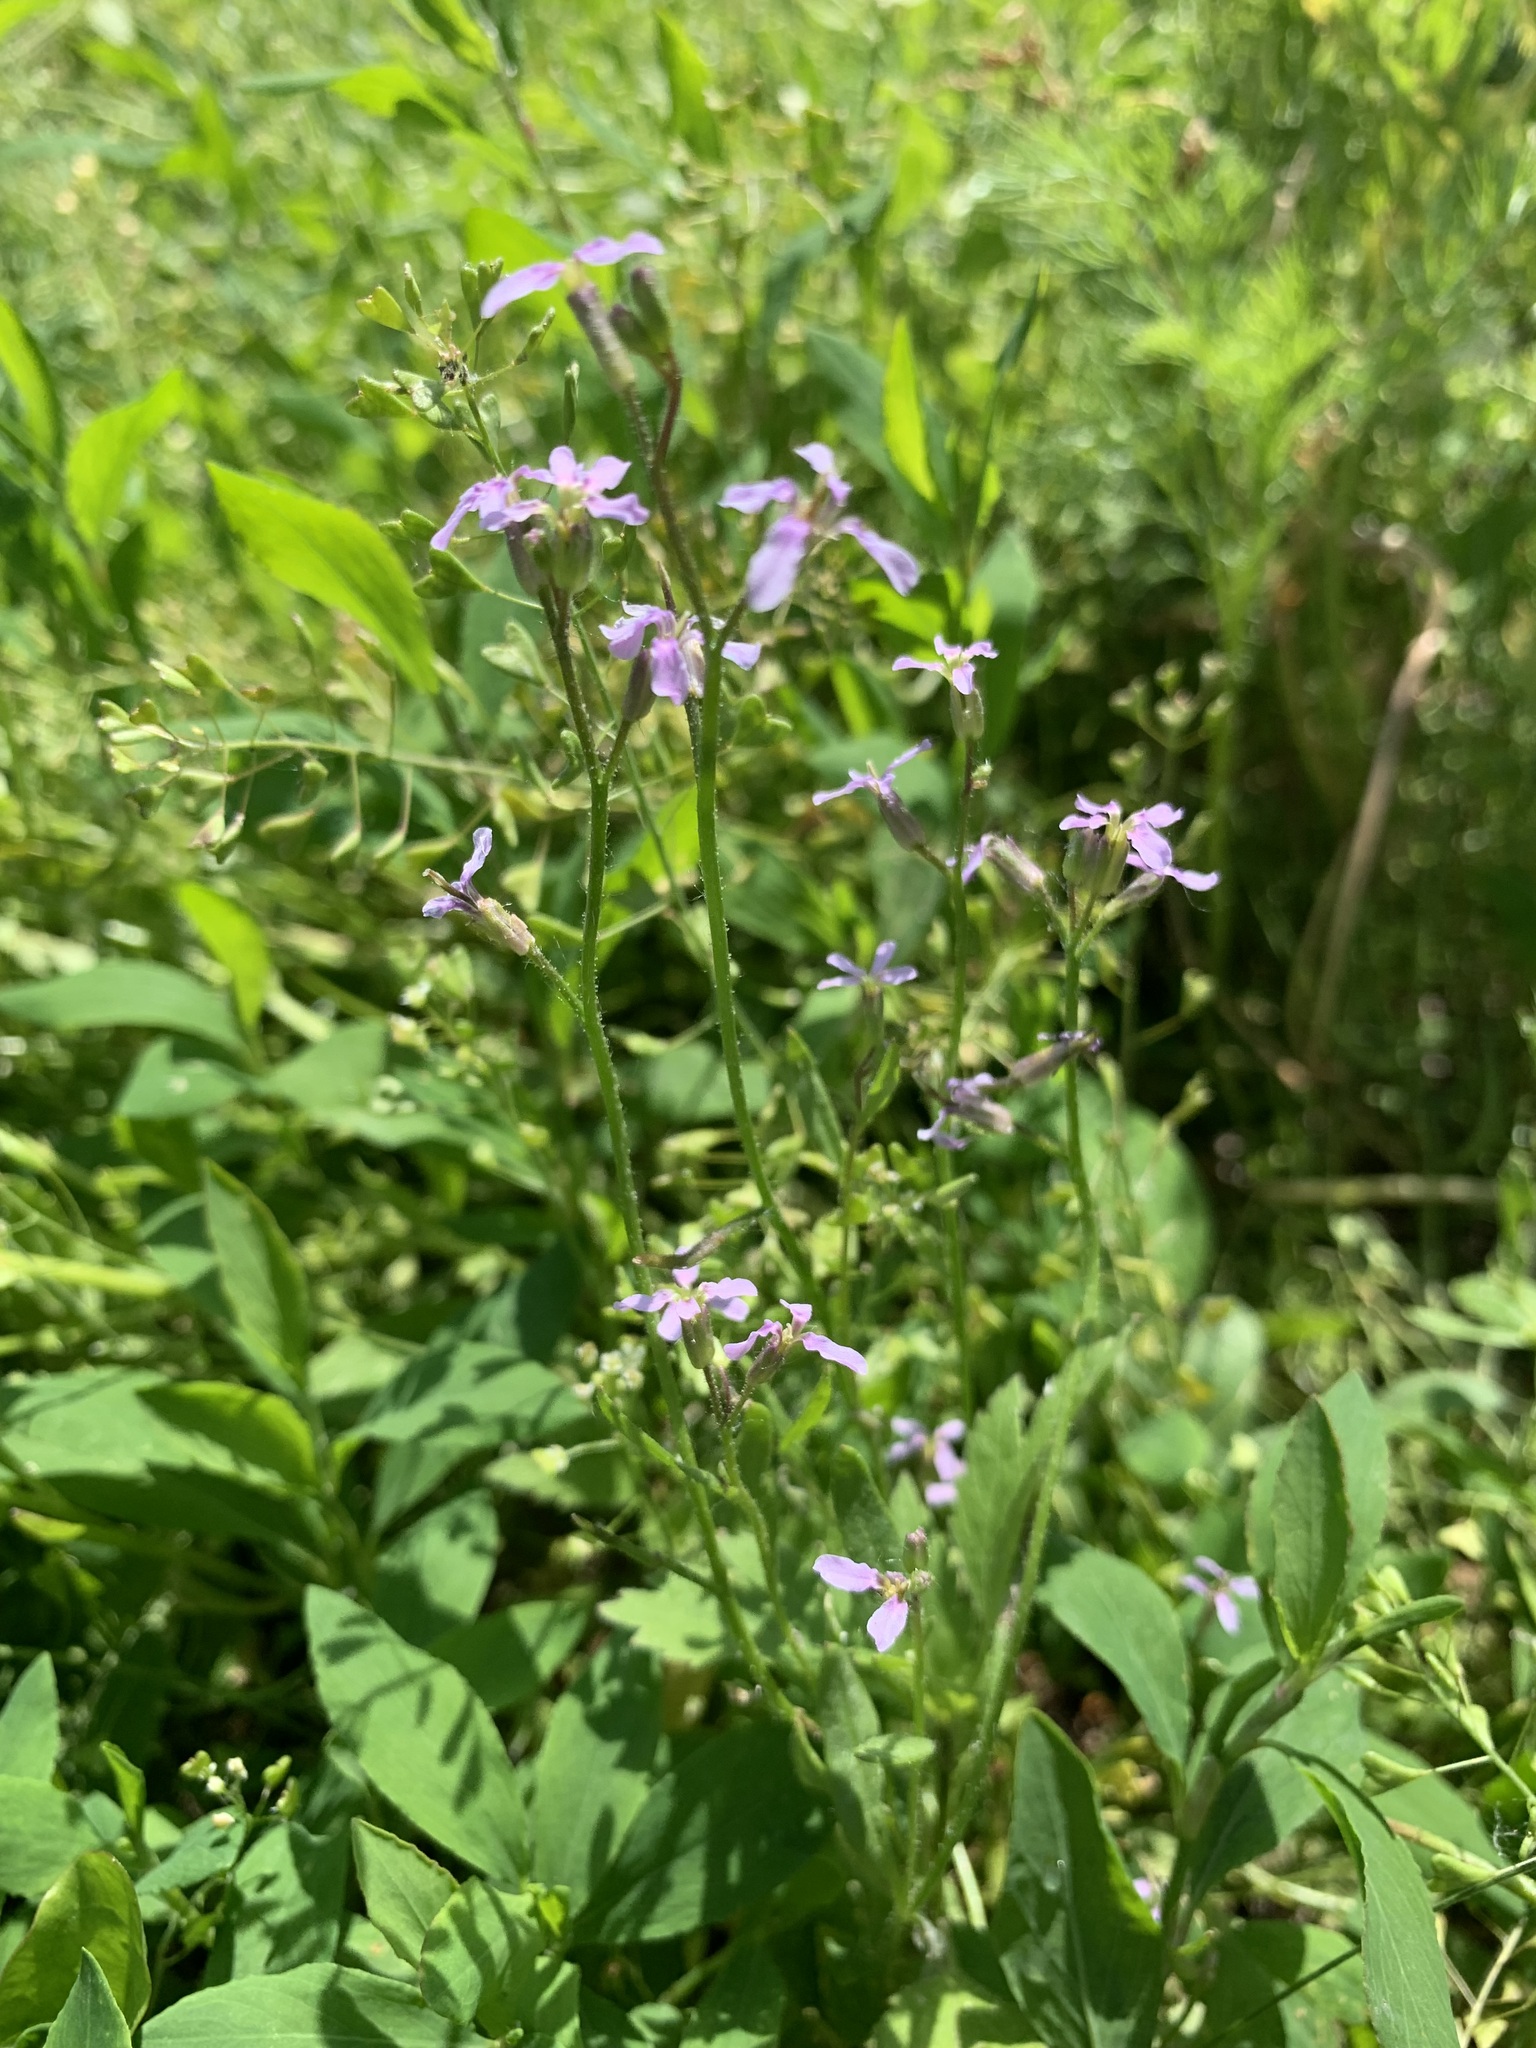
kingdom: Plantae
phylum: Tracheophyta
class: Magnoliopsida
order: Brassicales
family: Brassicaceae
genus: Chorispora
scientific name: Chorispora tenella
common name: Crossflower
